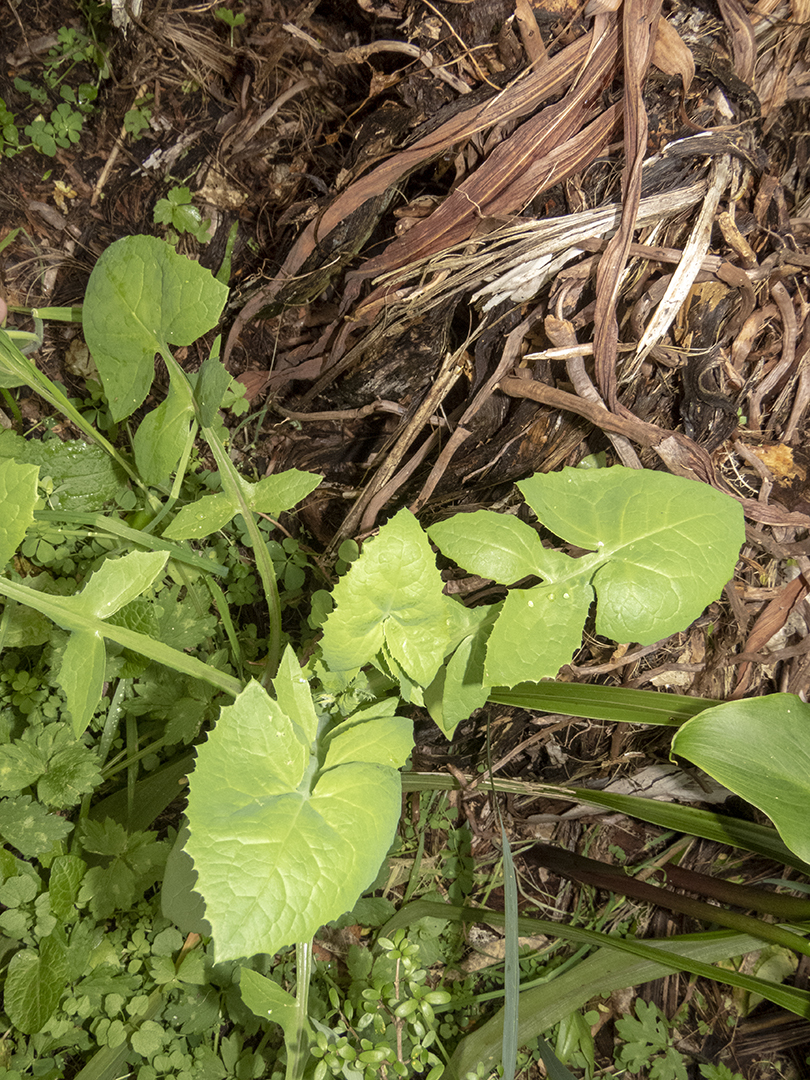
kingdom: Plantae
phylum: Tracheophyta
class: Magnoliopsida
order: Asterales
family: Asteraceae
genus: Sonchus
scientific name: Sonchus oleraceus
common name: Common sowthistle
